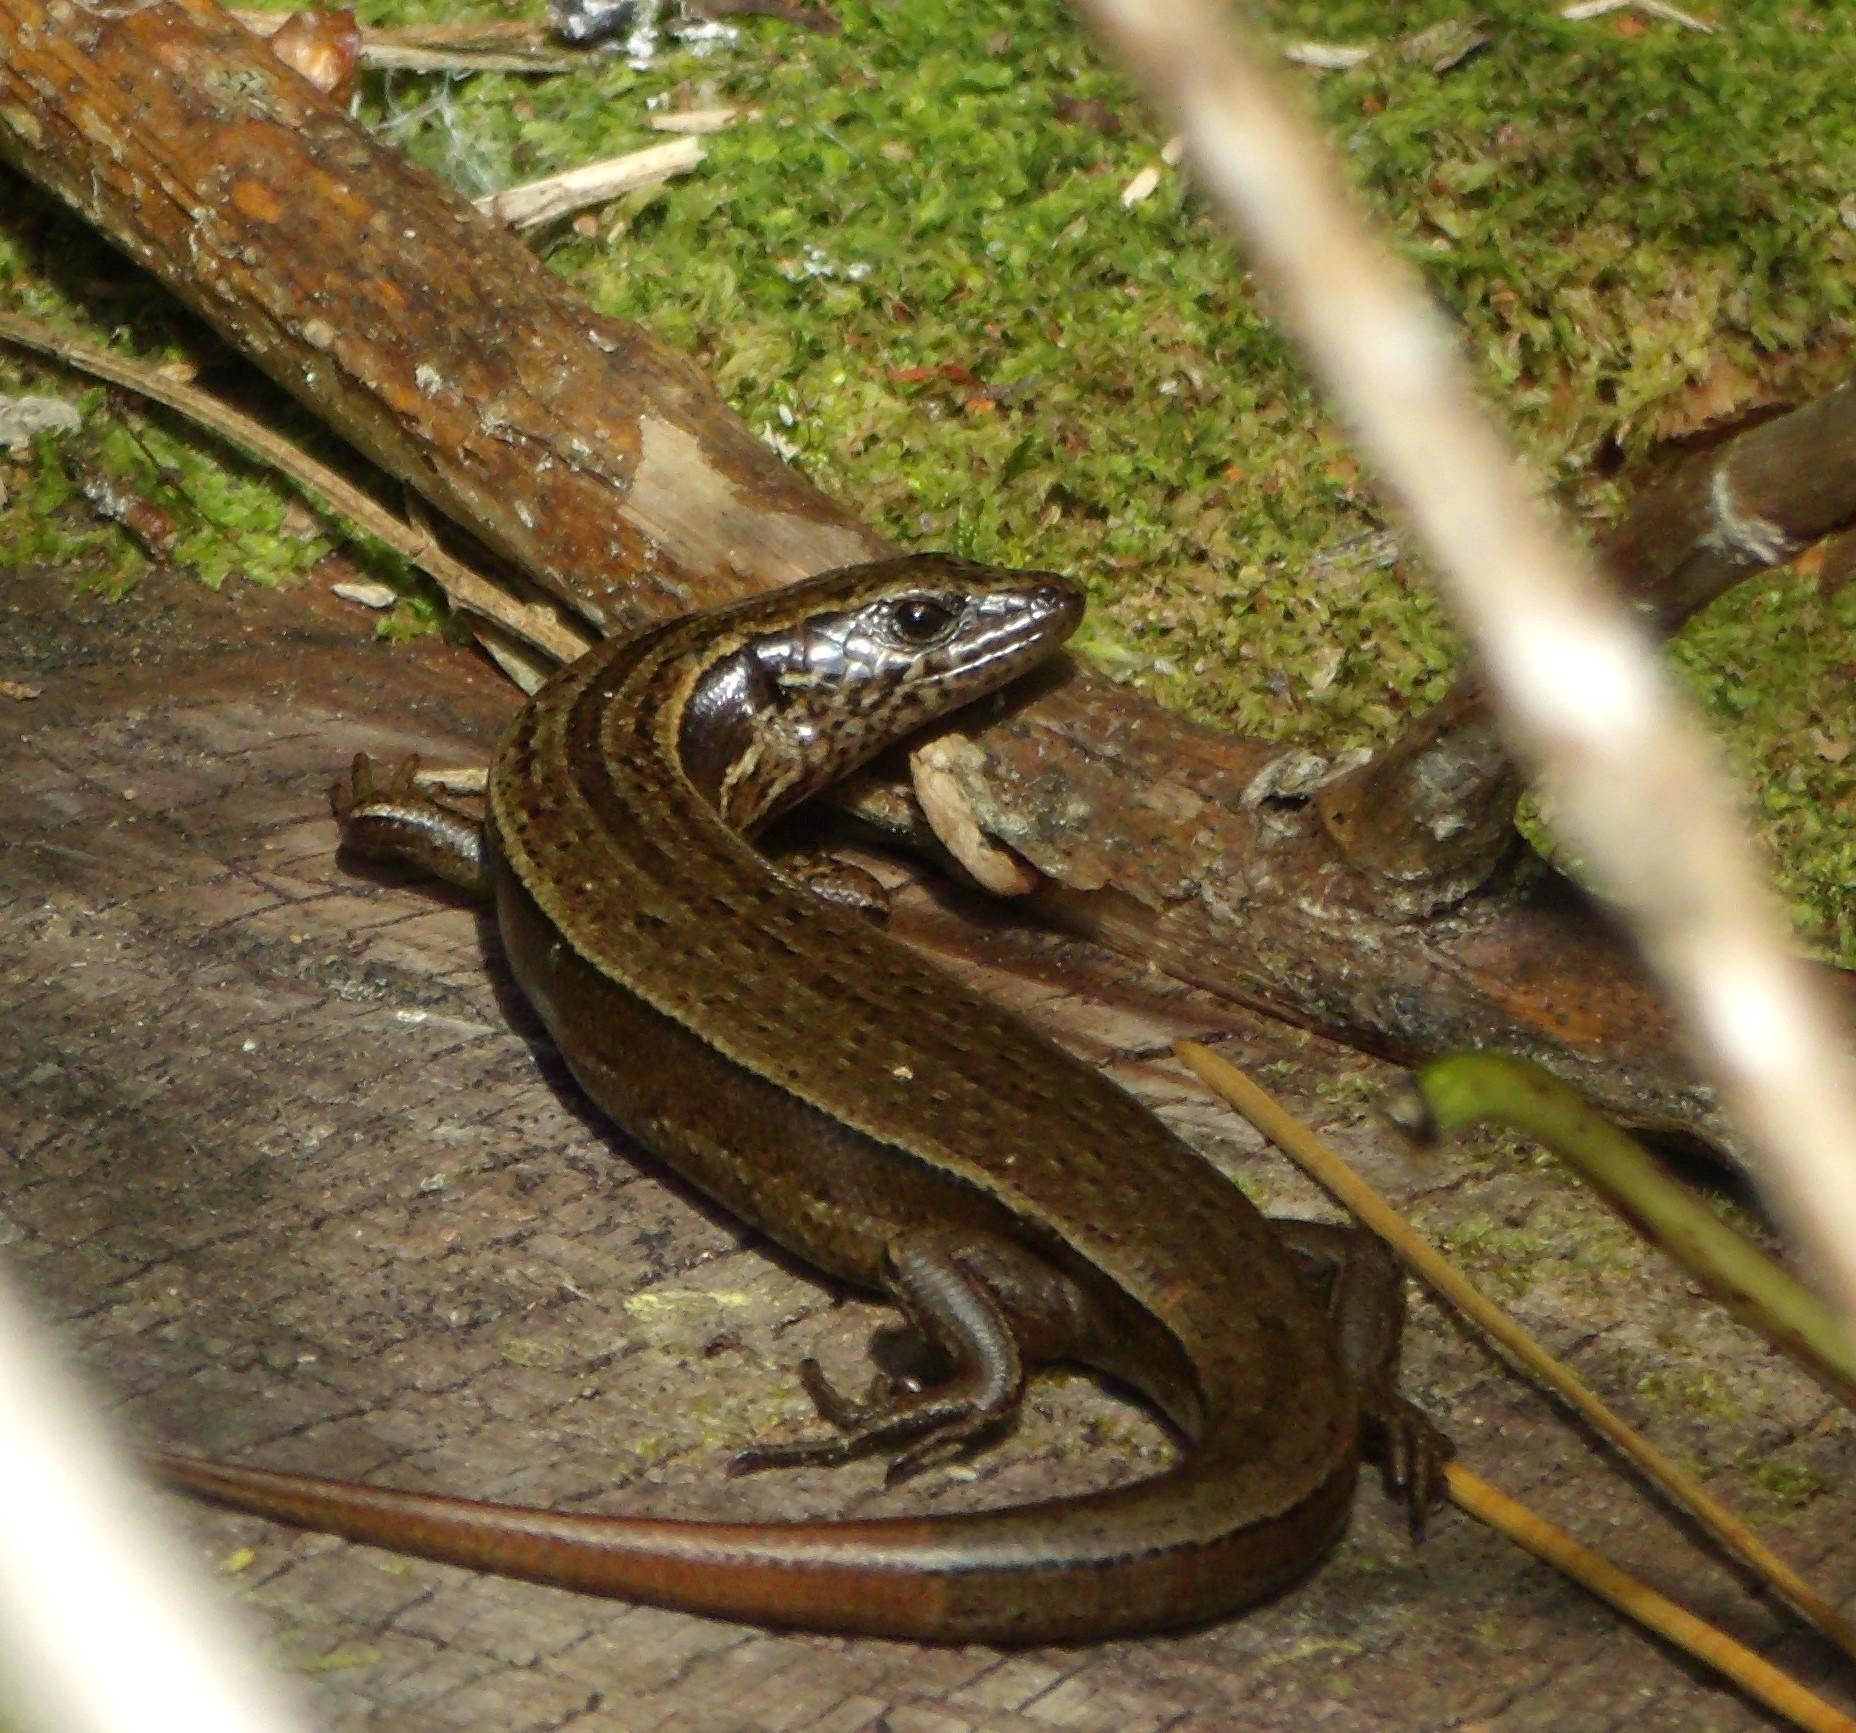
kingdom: Animalia
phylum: Chordata
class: Squamata
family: Scincidae
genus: Oligosoma
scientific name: Oligosoma zelandicum
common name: Brown skink
